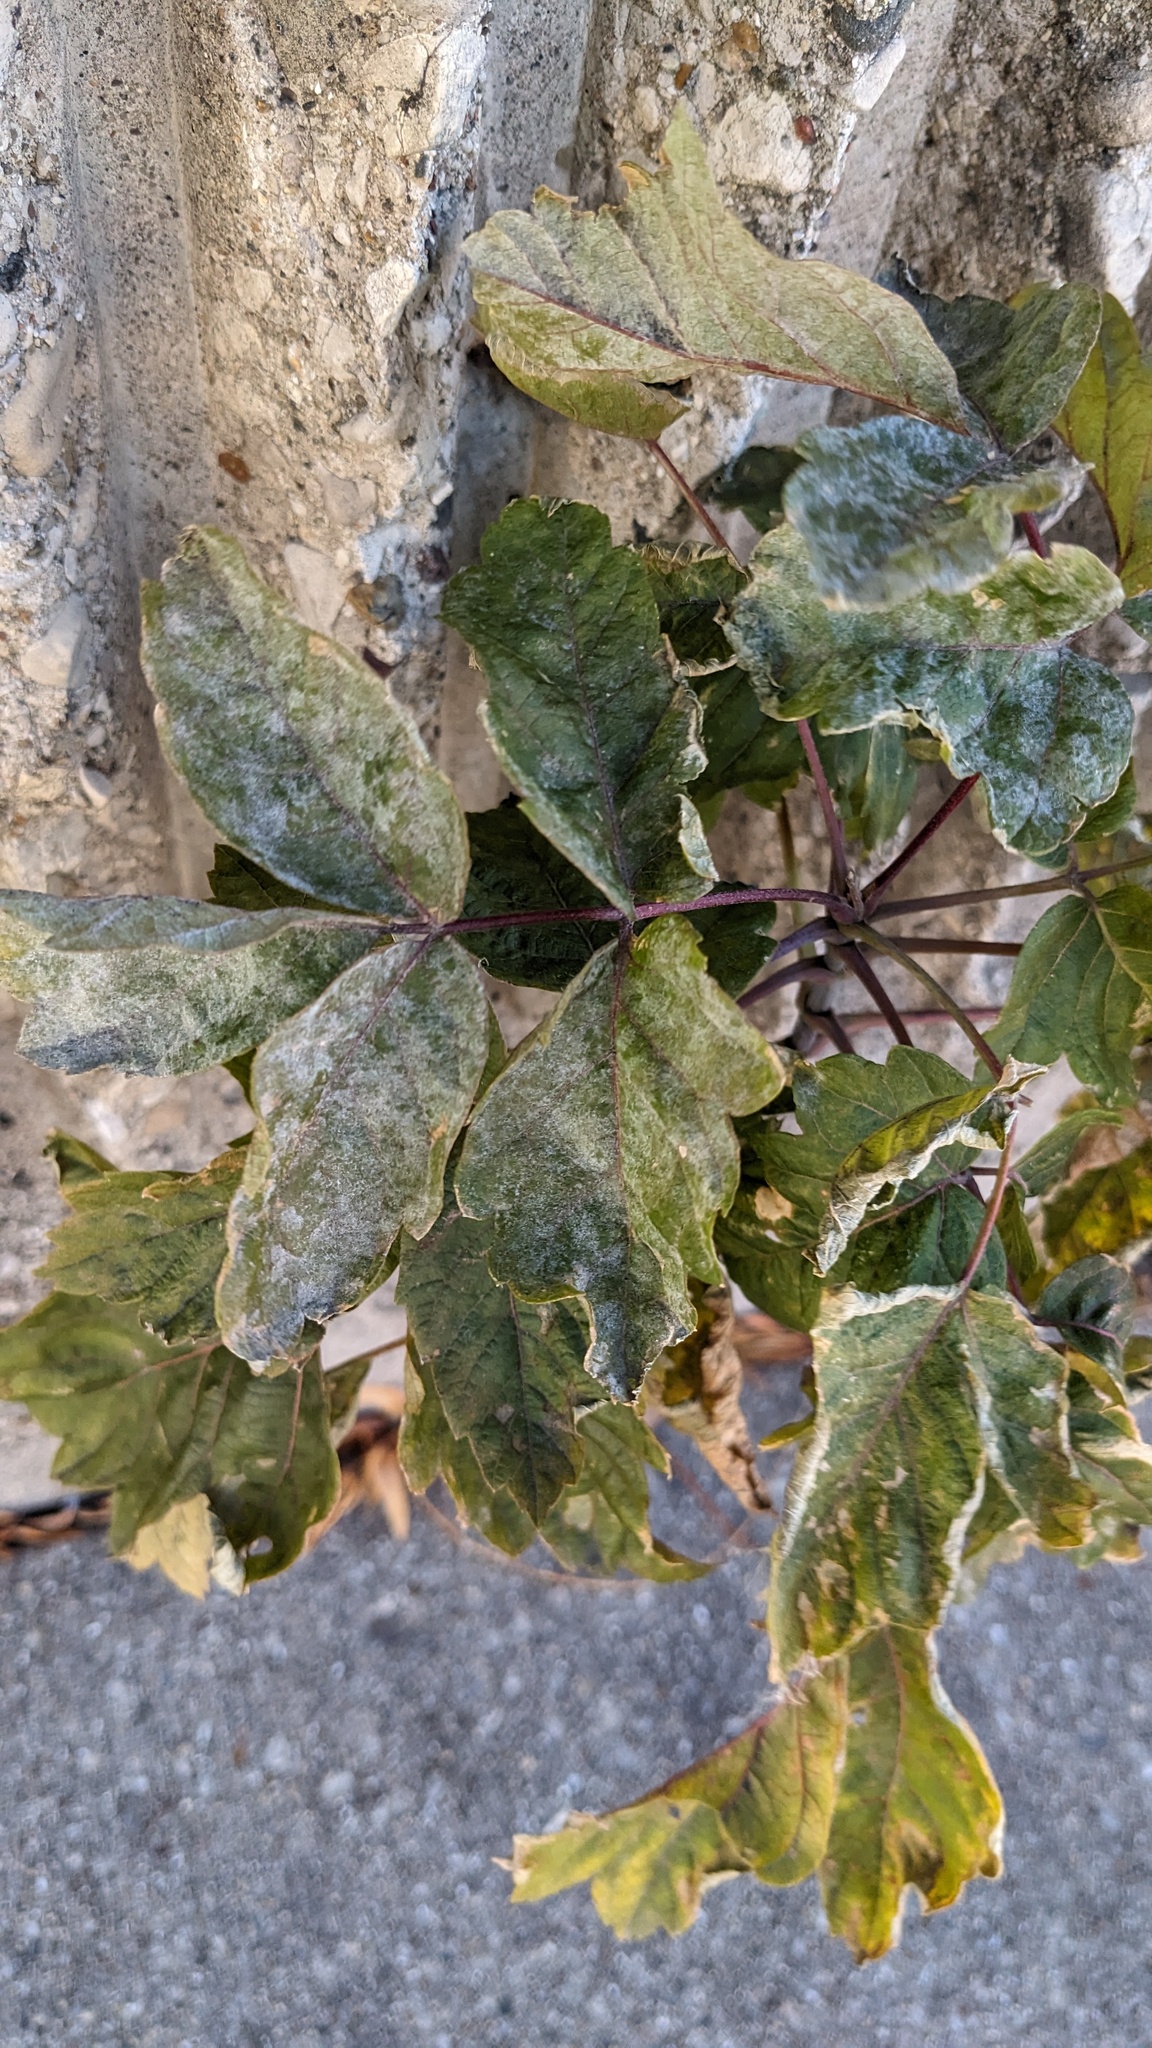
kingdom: Plantae
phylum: Tracheophyta
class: Magnoliopsida
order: Sapindales
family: Sapindaceae
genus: Acer
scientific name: Acer negundo
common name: Ashleaf maple
